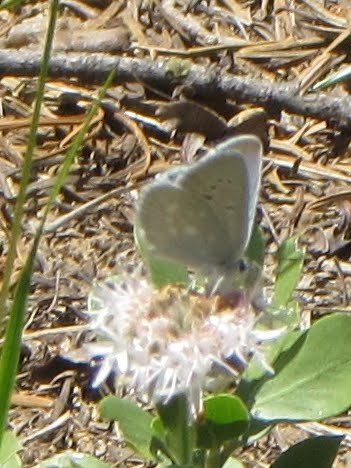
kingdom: Animalia
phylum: Arthropoda
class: Insecta
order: Lepidoptera
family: Lycaenidae
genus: Icaricia
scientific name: Icaricia icarioides
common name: Boisduval's blue
